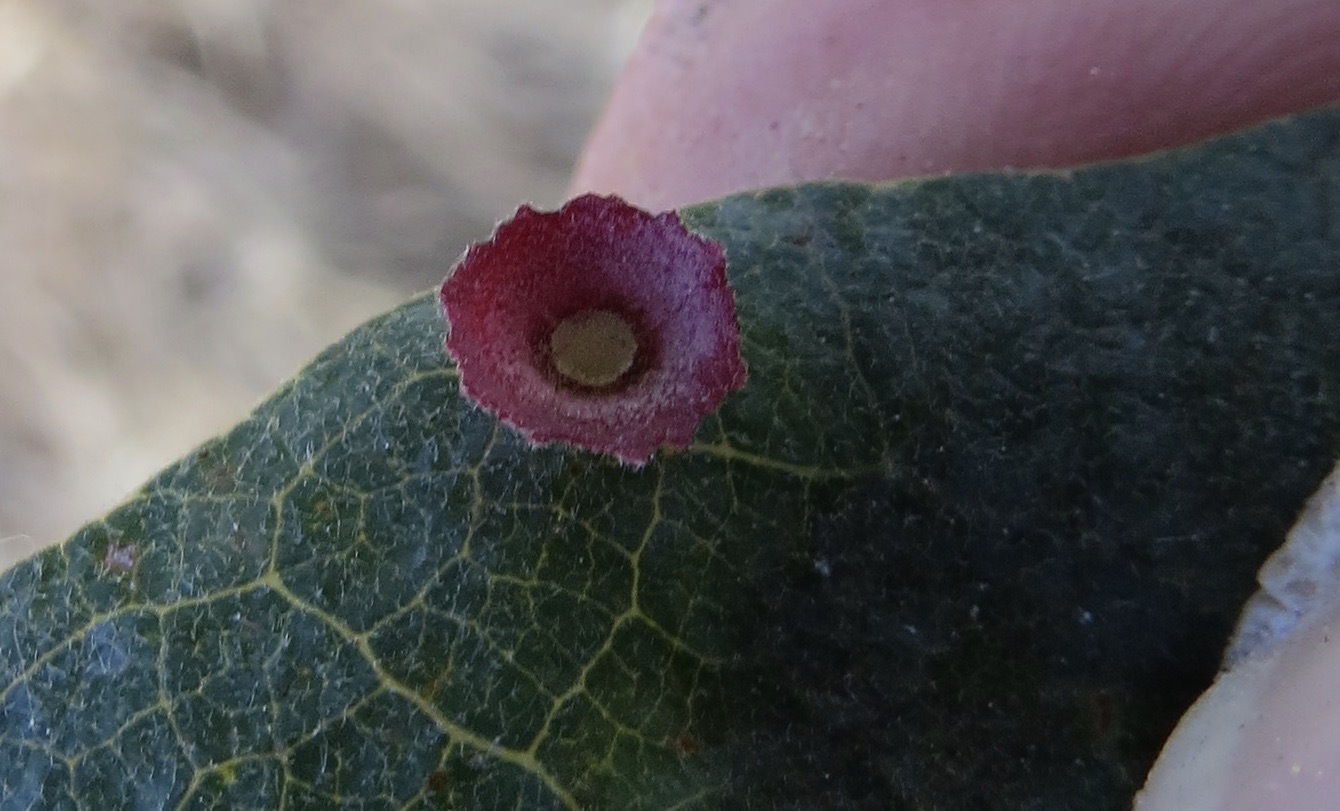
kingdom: Animalia
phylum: Arthropoda
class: Insecta
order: Hymenoptera
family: Cynipidae
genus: Andricus
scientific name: Andricus
